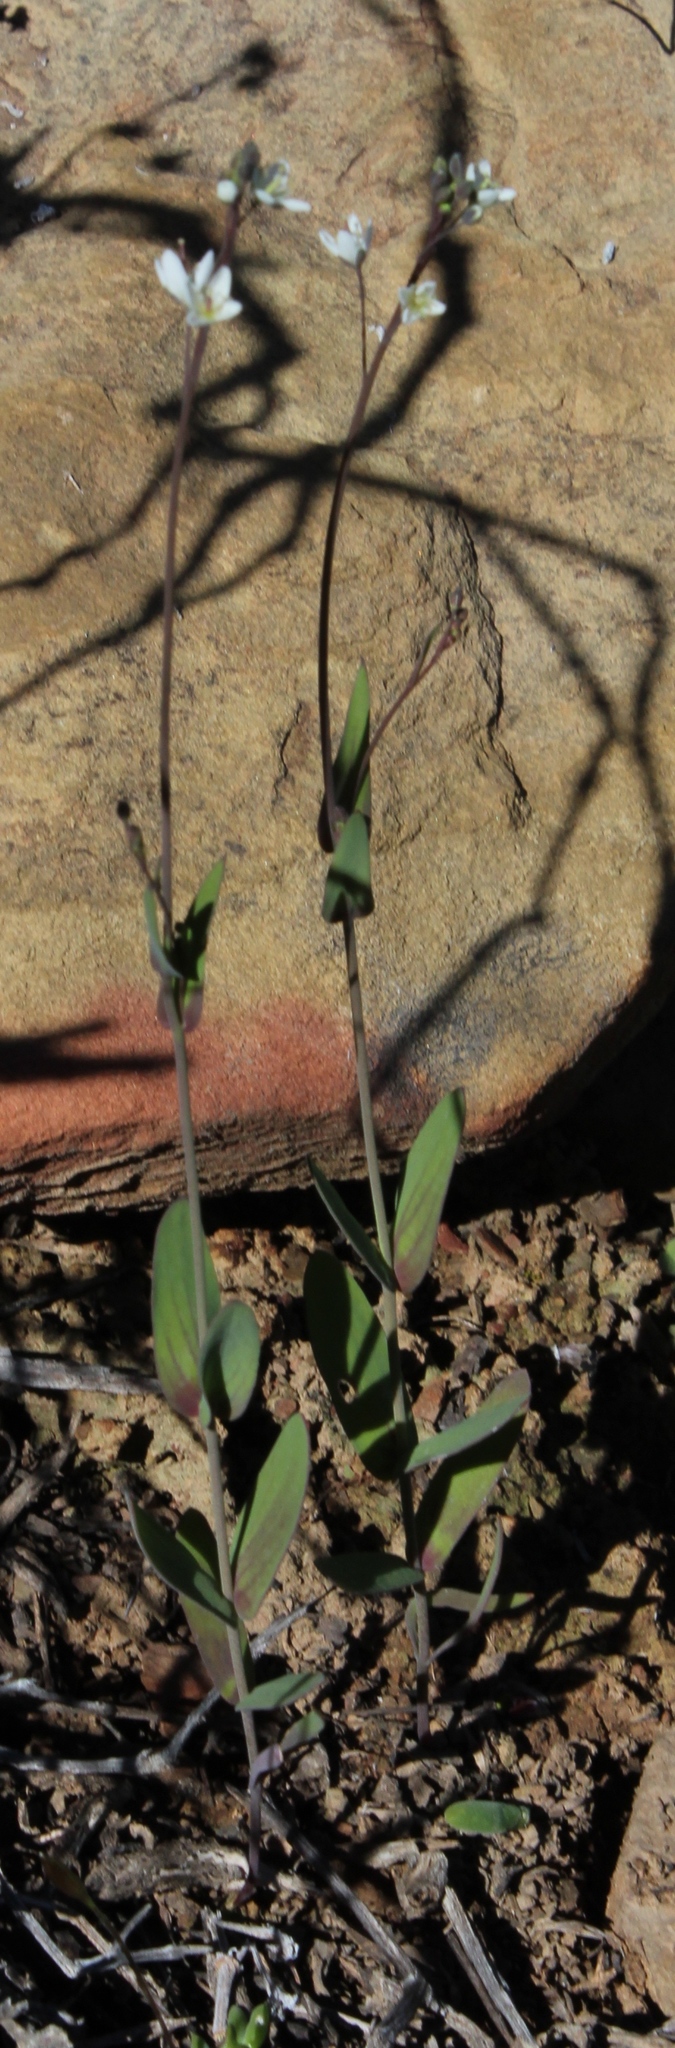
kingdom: Plantae
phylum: Tracheophyta
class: Magnoliopsida
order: Brassicales
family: Brassicaceae
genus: Heliophila
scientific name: Heliophila amplexicaulis
